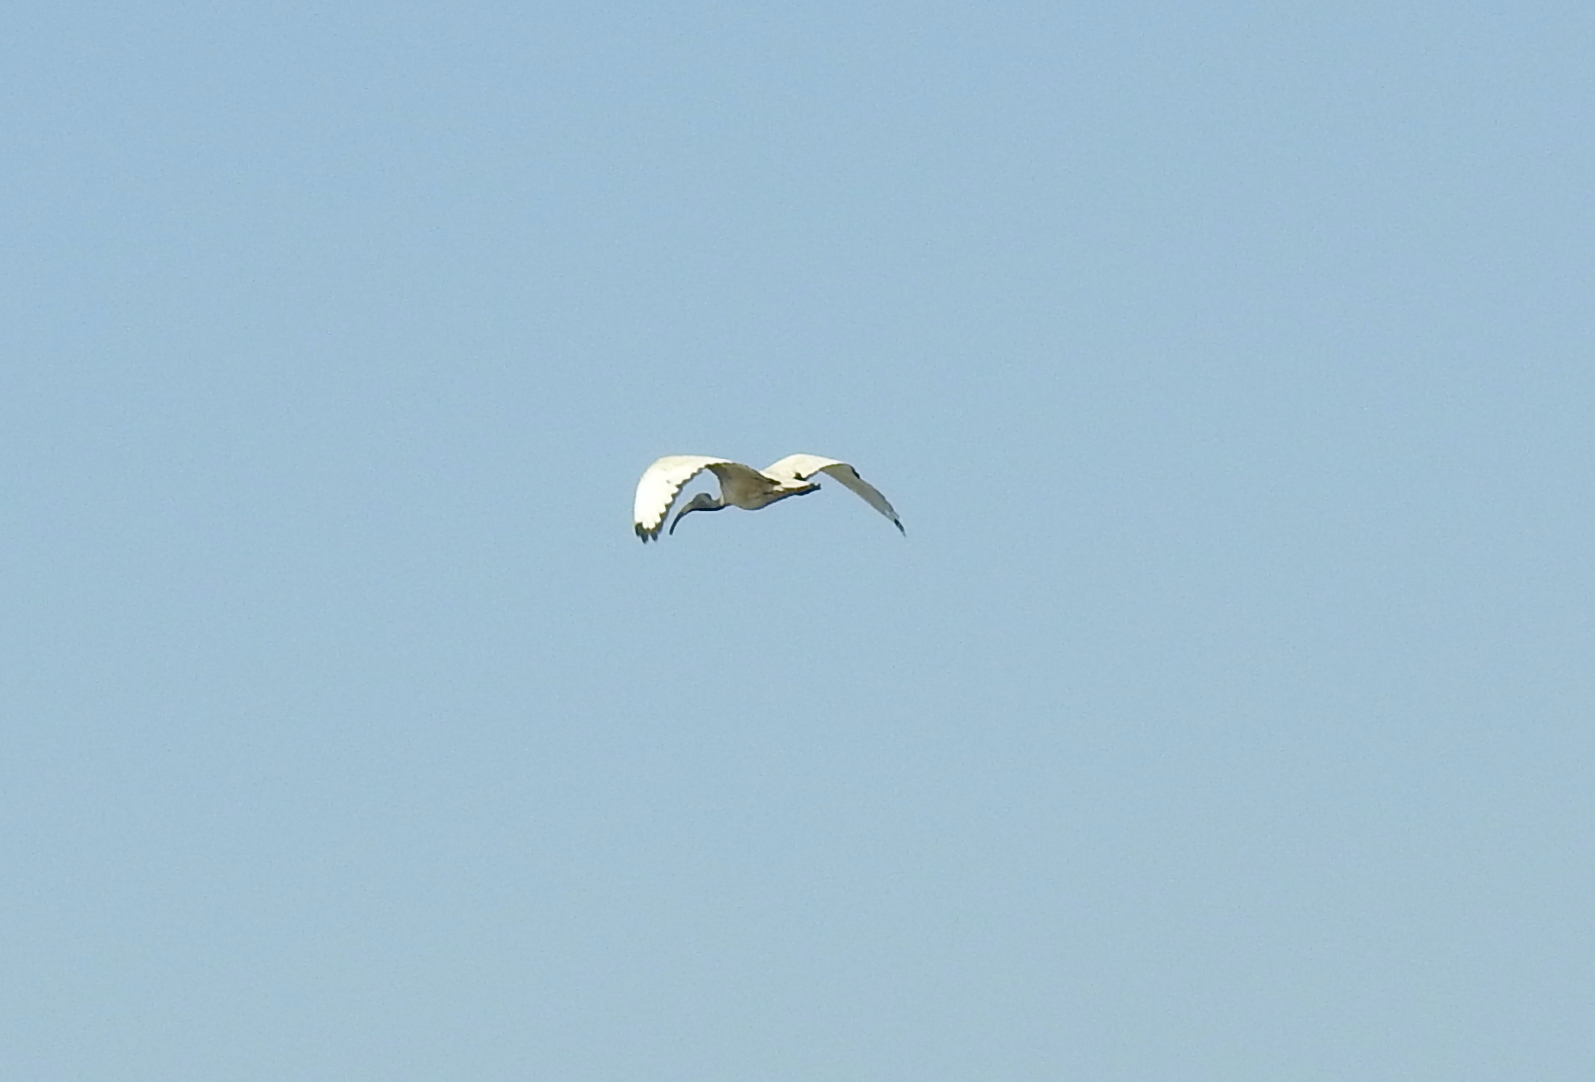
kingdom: Animalia
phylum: Chordata
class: Aves
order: Pelecaniformes
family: Threskiornithidae
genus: Threskiornis
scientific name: Threskiornis aethiopicus
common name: Sacred ibis
